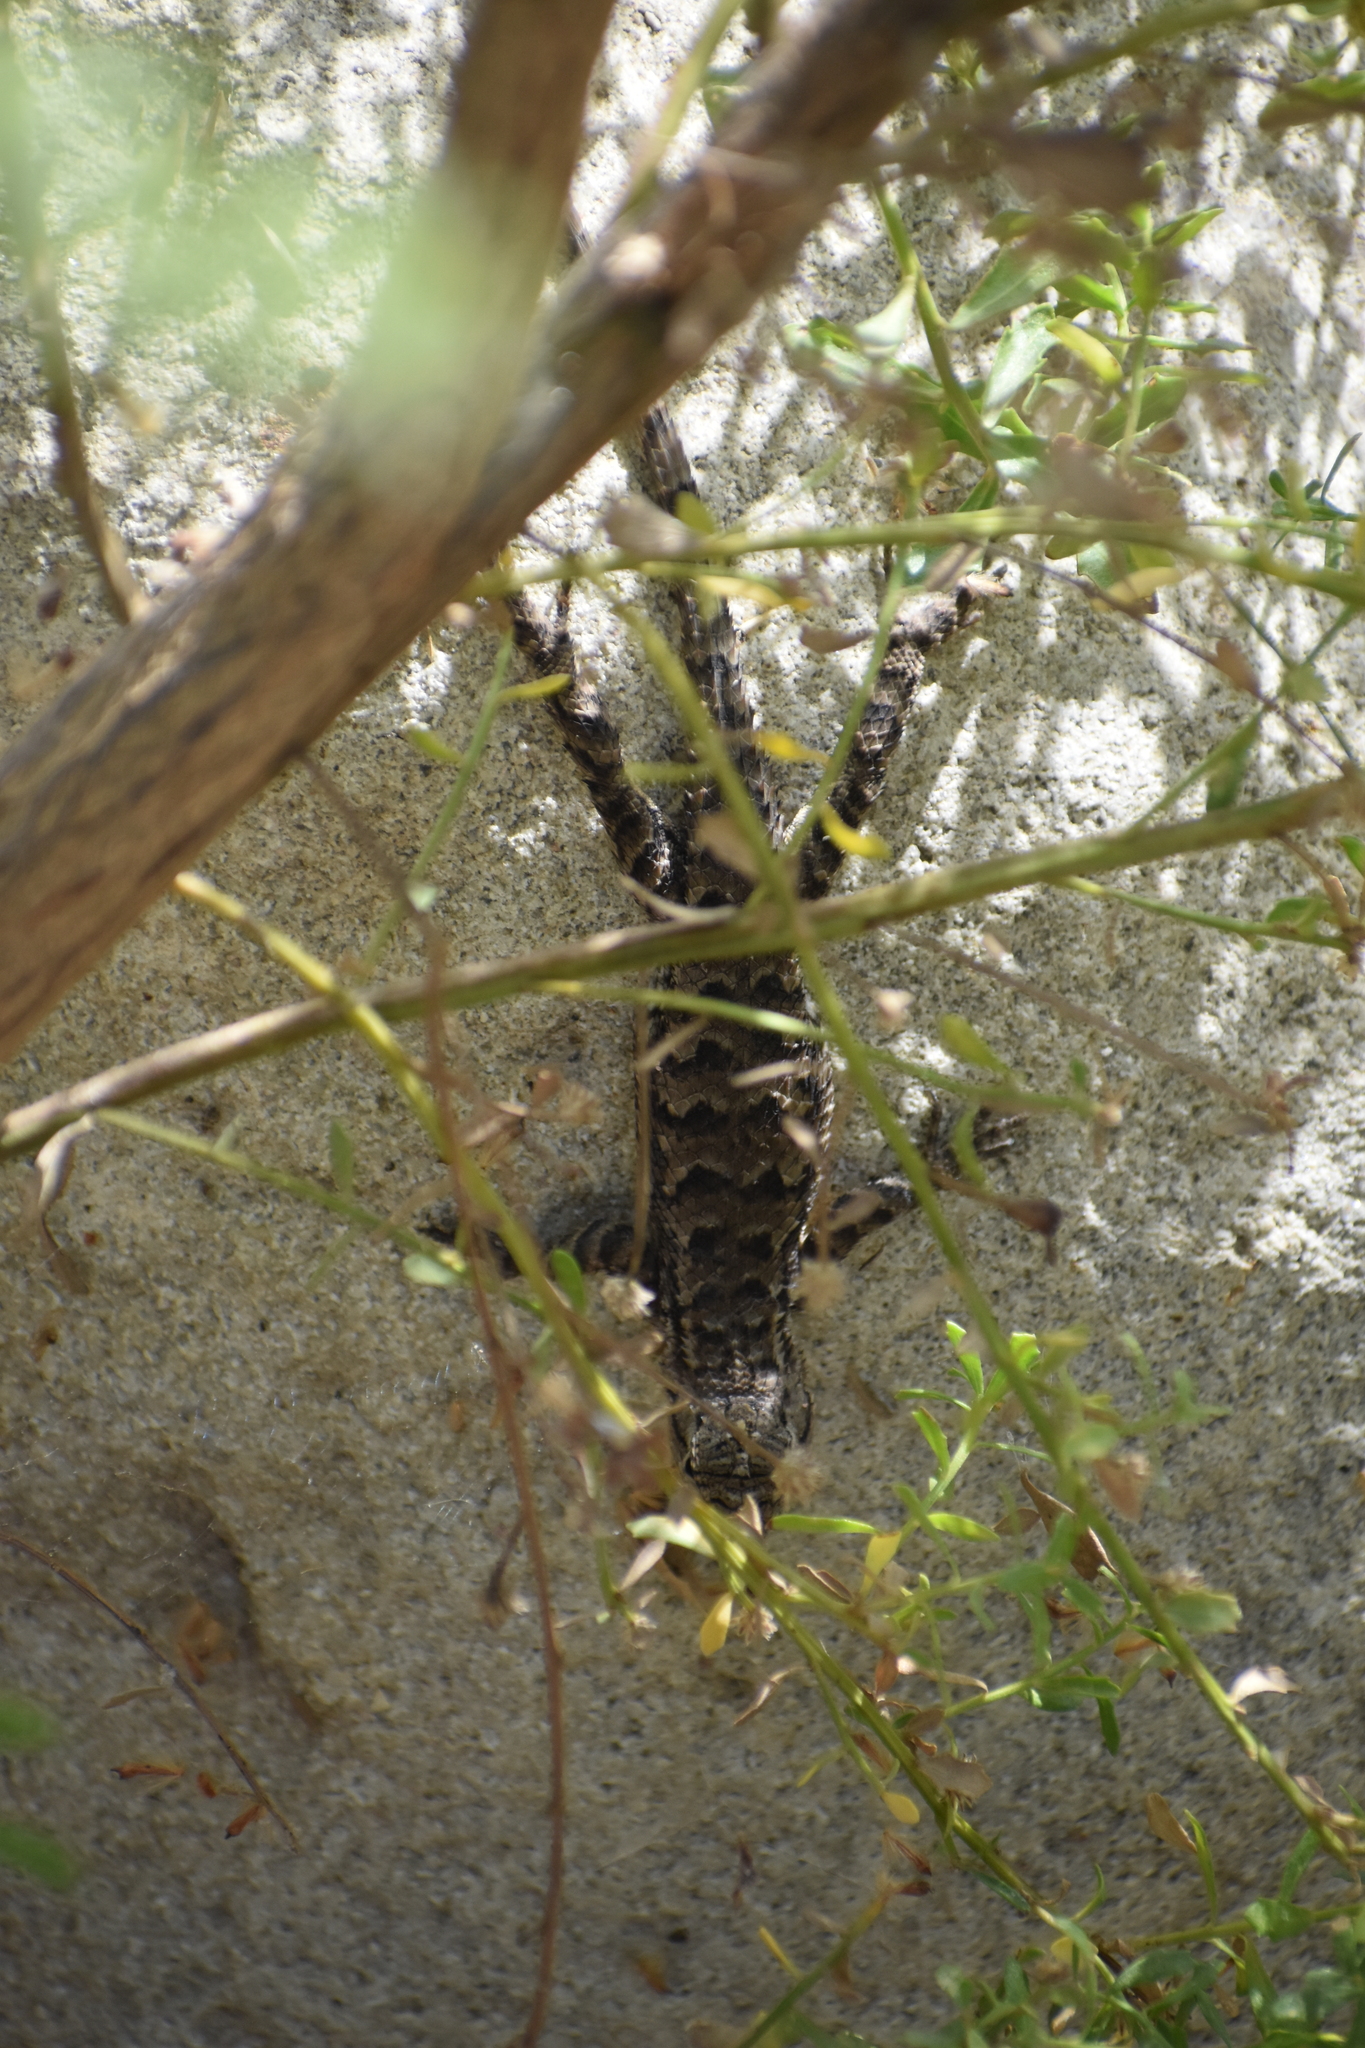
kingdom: Animalia
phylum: Chordata
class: Squamata
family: Phrynosomatidae
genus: Sceloporus
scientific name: Sceloporus occidentalis
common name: Western fence lizard
